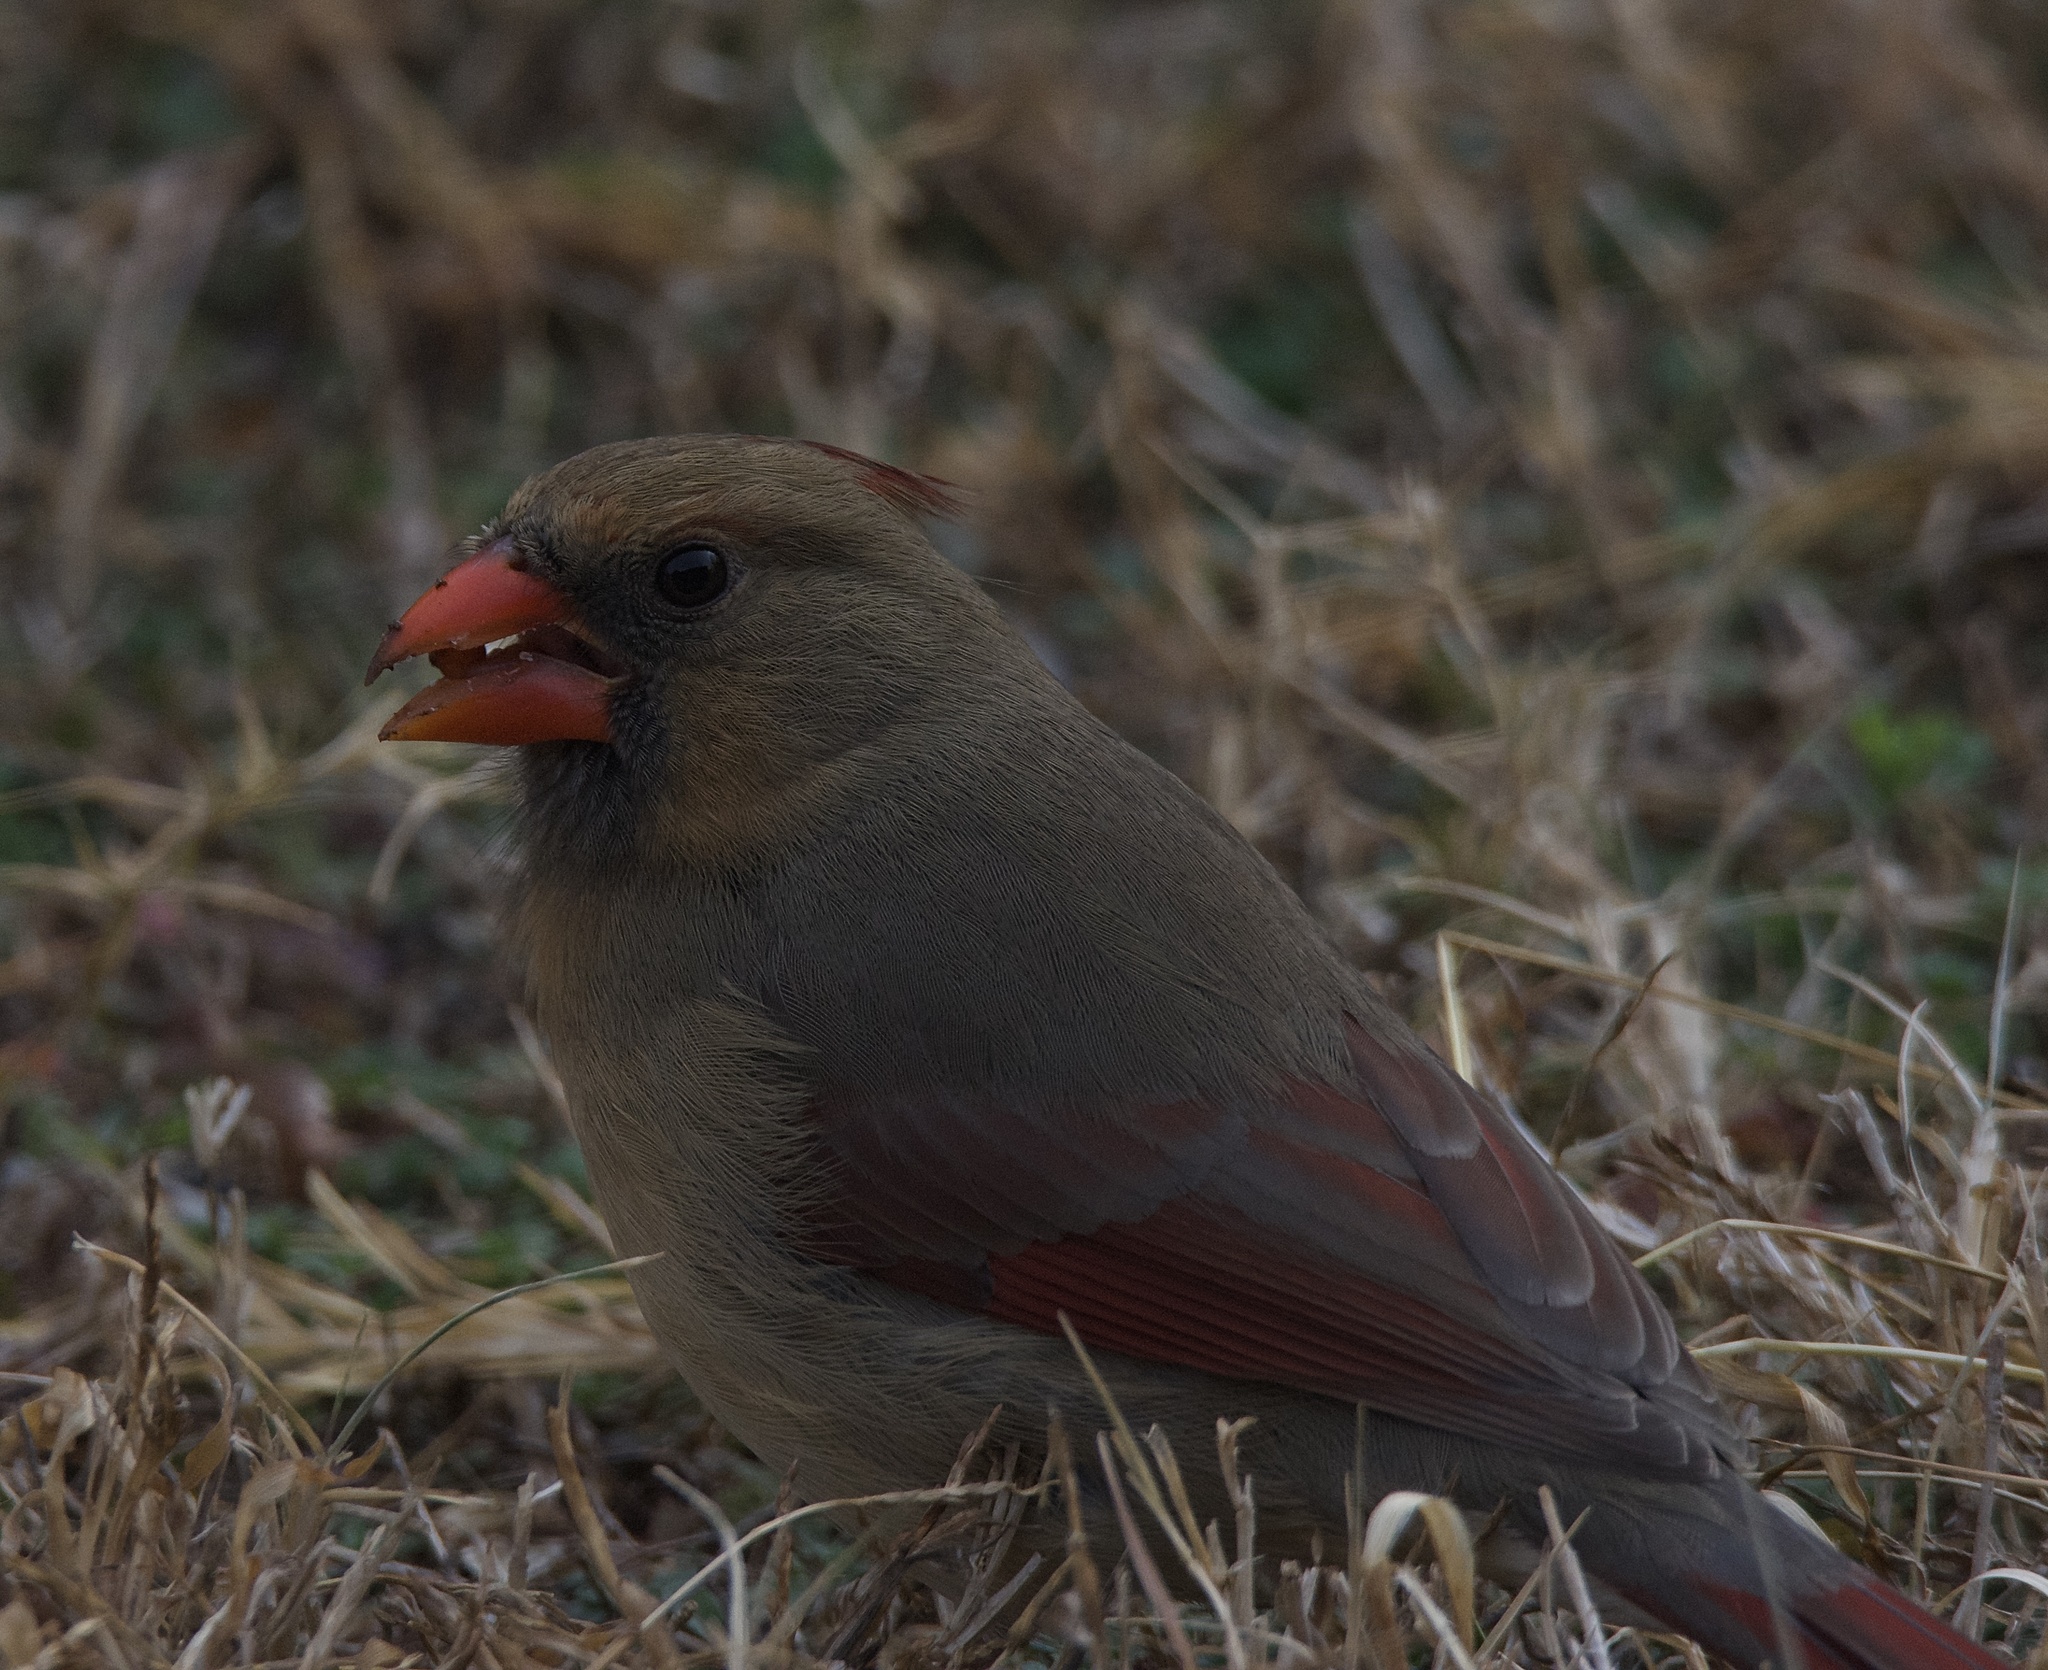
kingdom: Animalia
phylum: Chordata
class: Aves
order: Passeriformes
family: Cardinalidae
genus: Cardinalis
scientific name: Cardinalis cardinalis
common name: Northern cardinal
